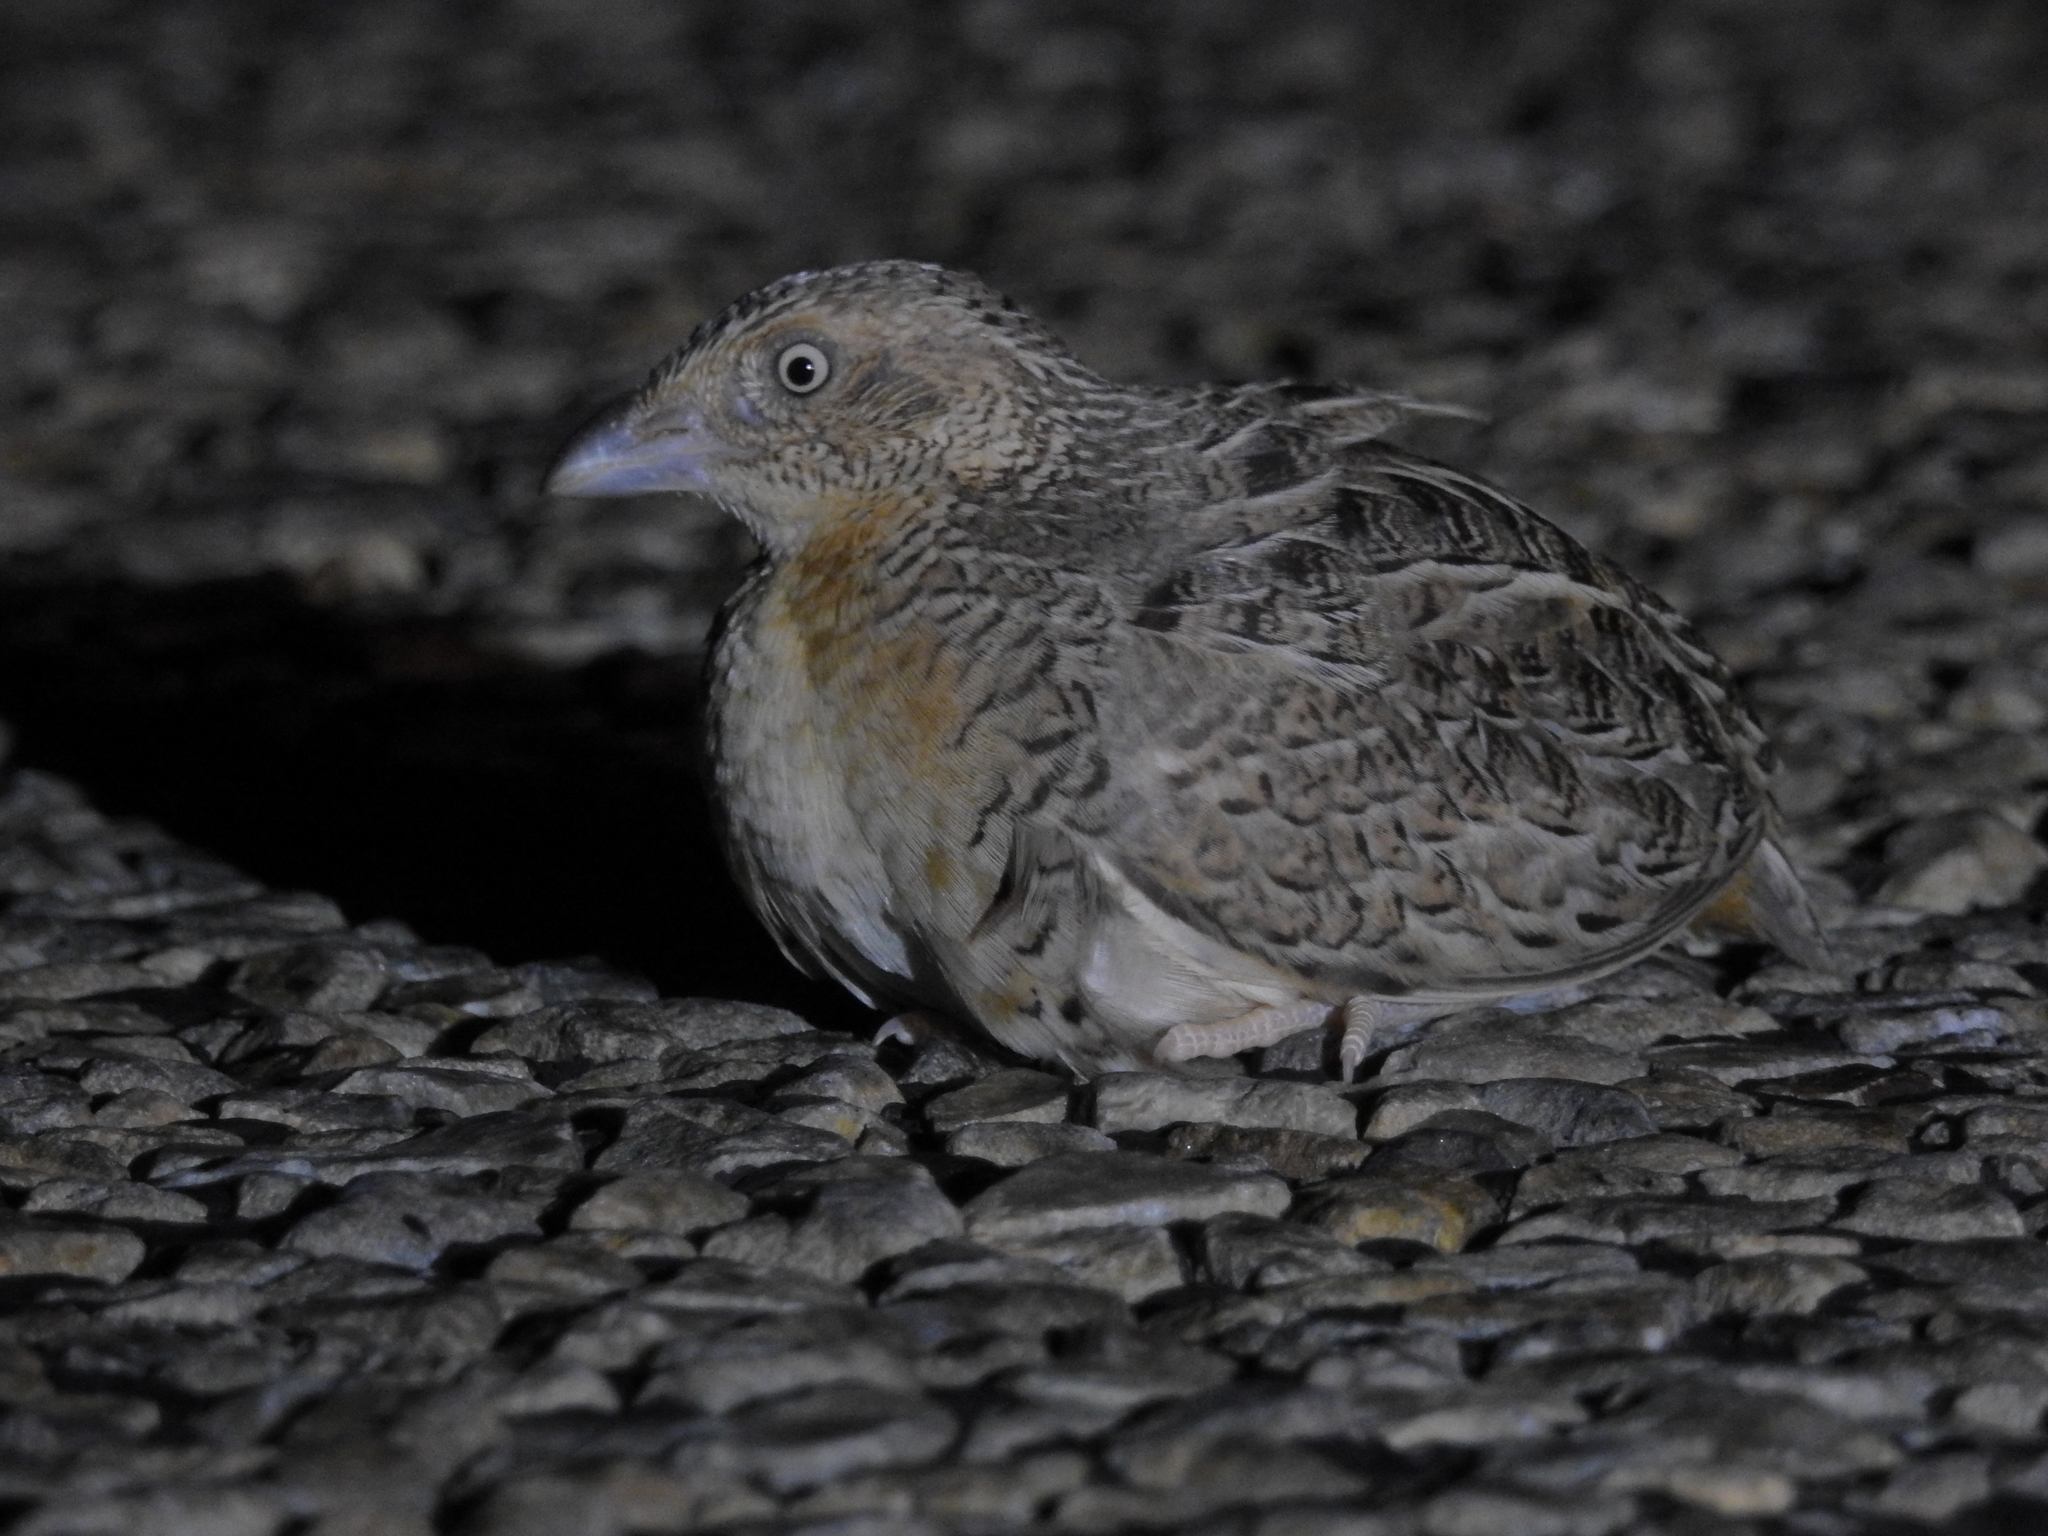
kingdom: Animalia
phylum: Chordata
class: Aves
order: Charadriiformes
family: Turnicidae
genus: Turnix
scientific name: Turnix pyrrhothorax
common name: Red-chested buttonquail
